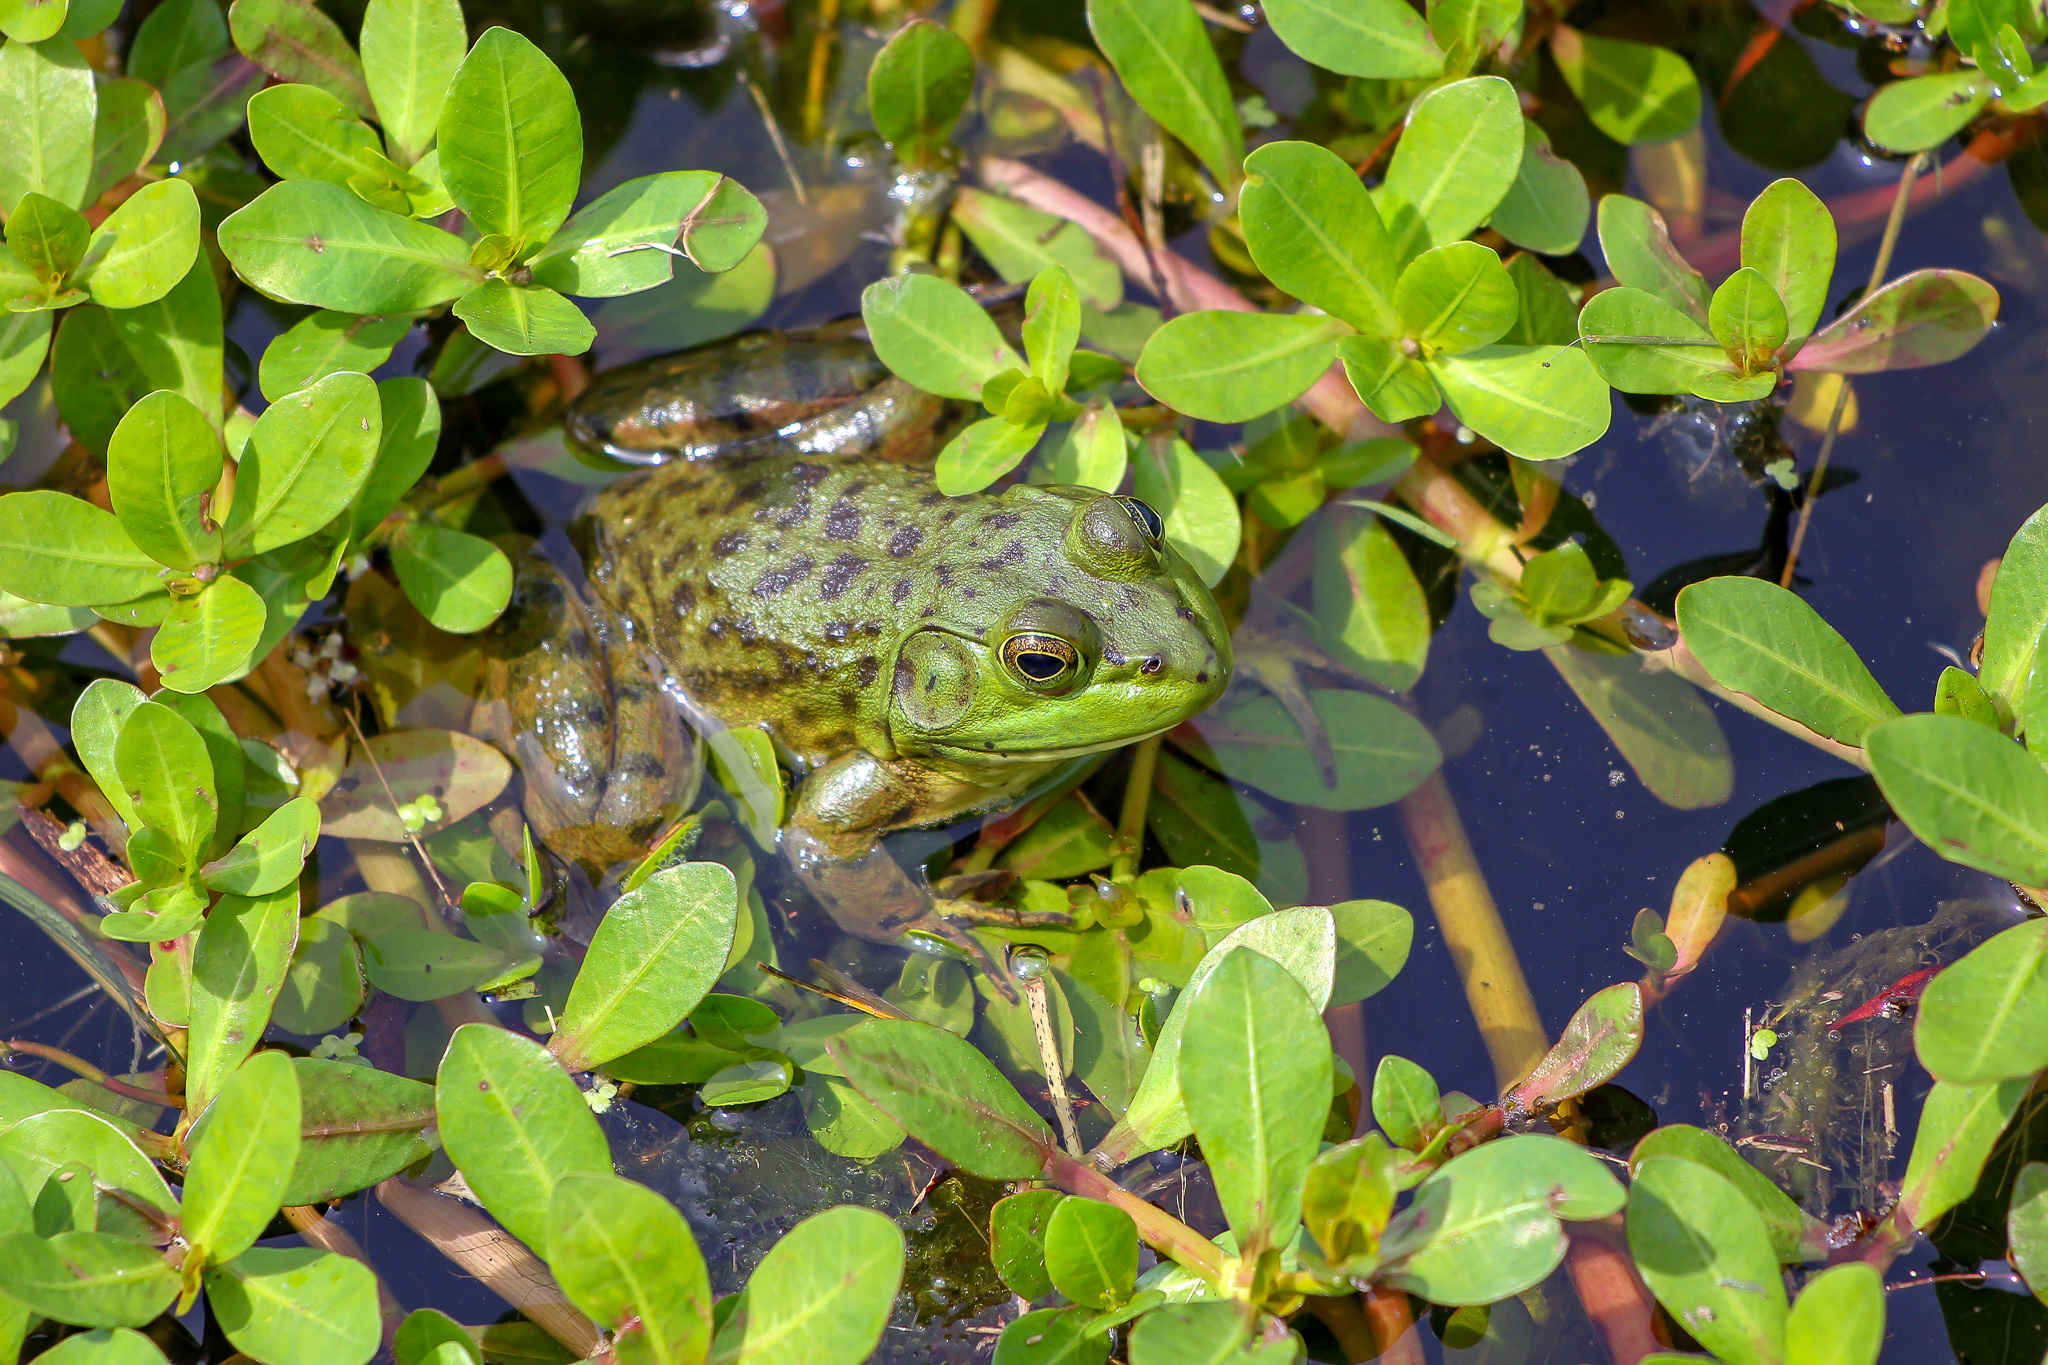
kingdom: Animalia
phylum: Chordata
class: Amphibia
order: Anura
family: Ranidae
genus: Lithobates
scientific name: Lithobates catesbeianus
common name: American bullfrog
